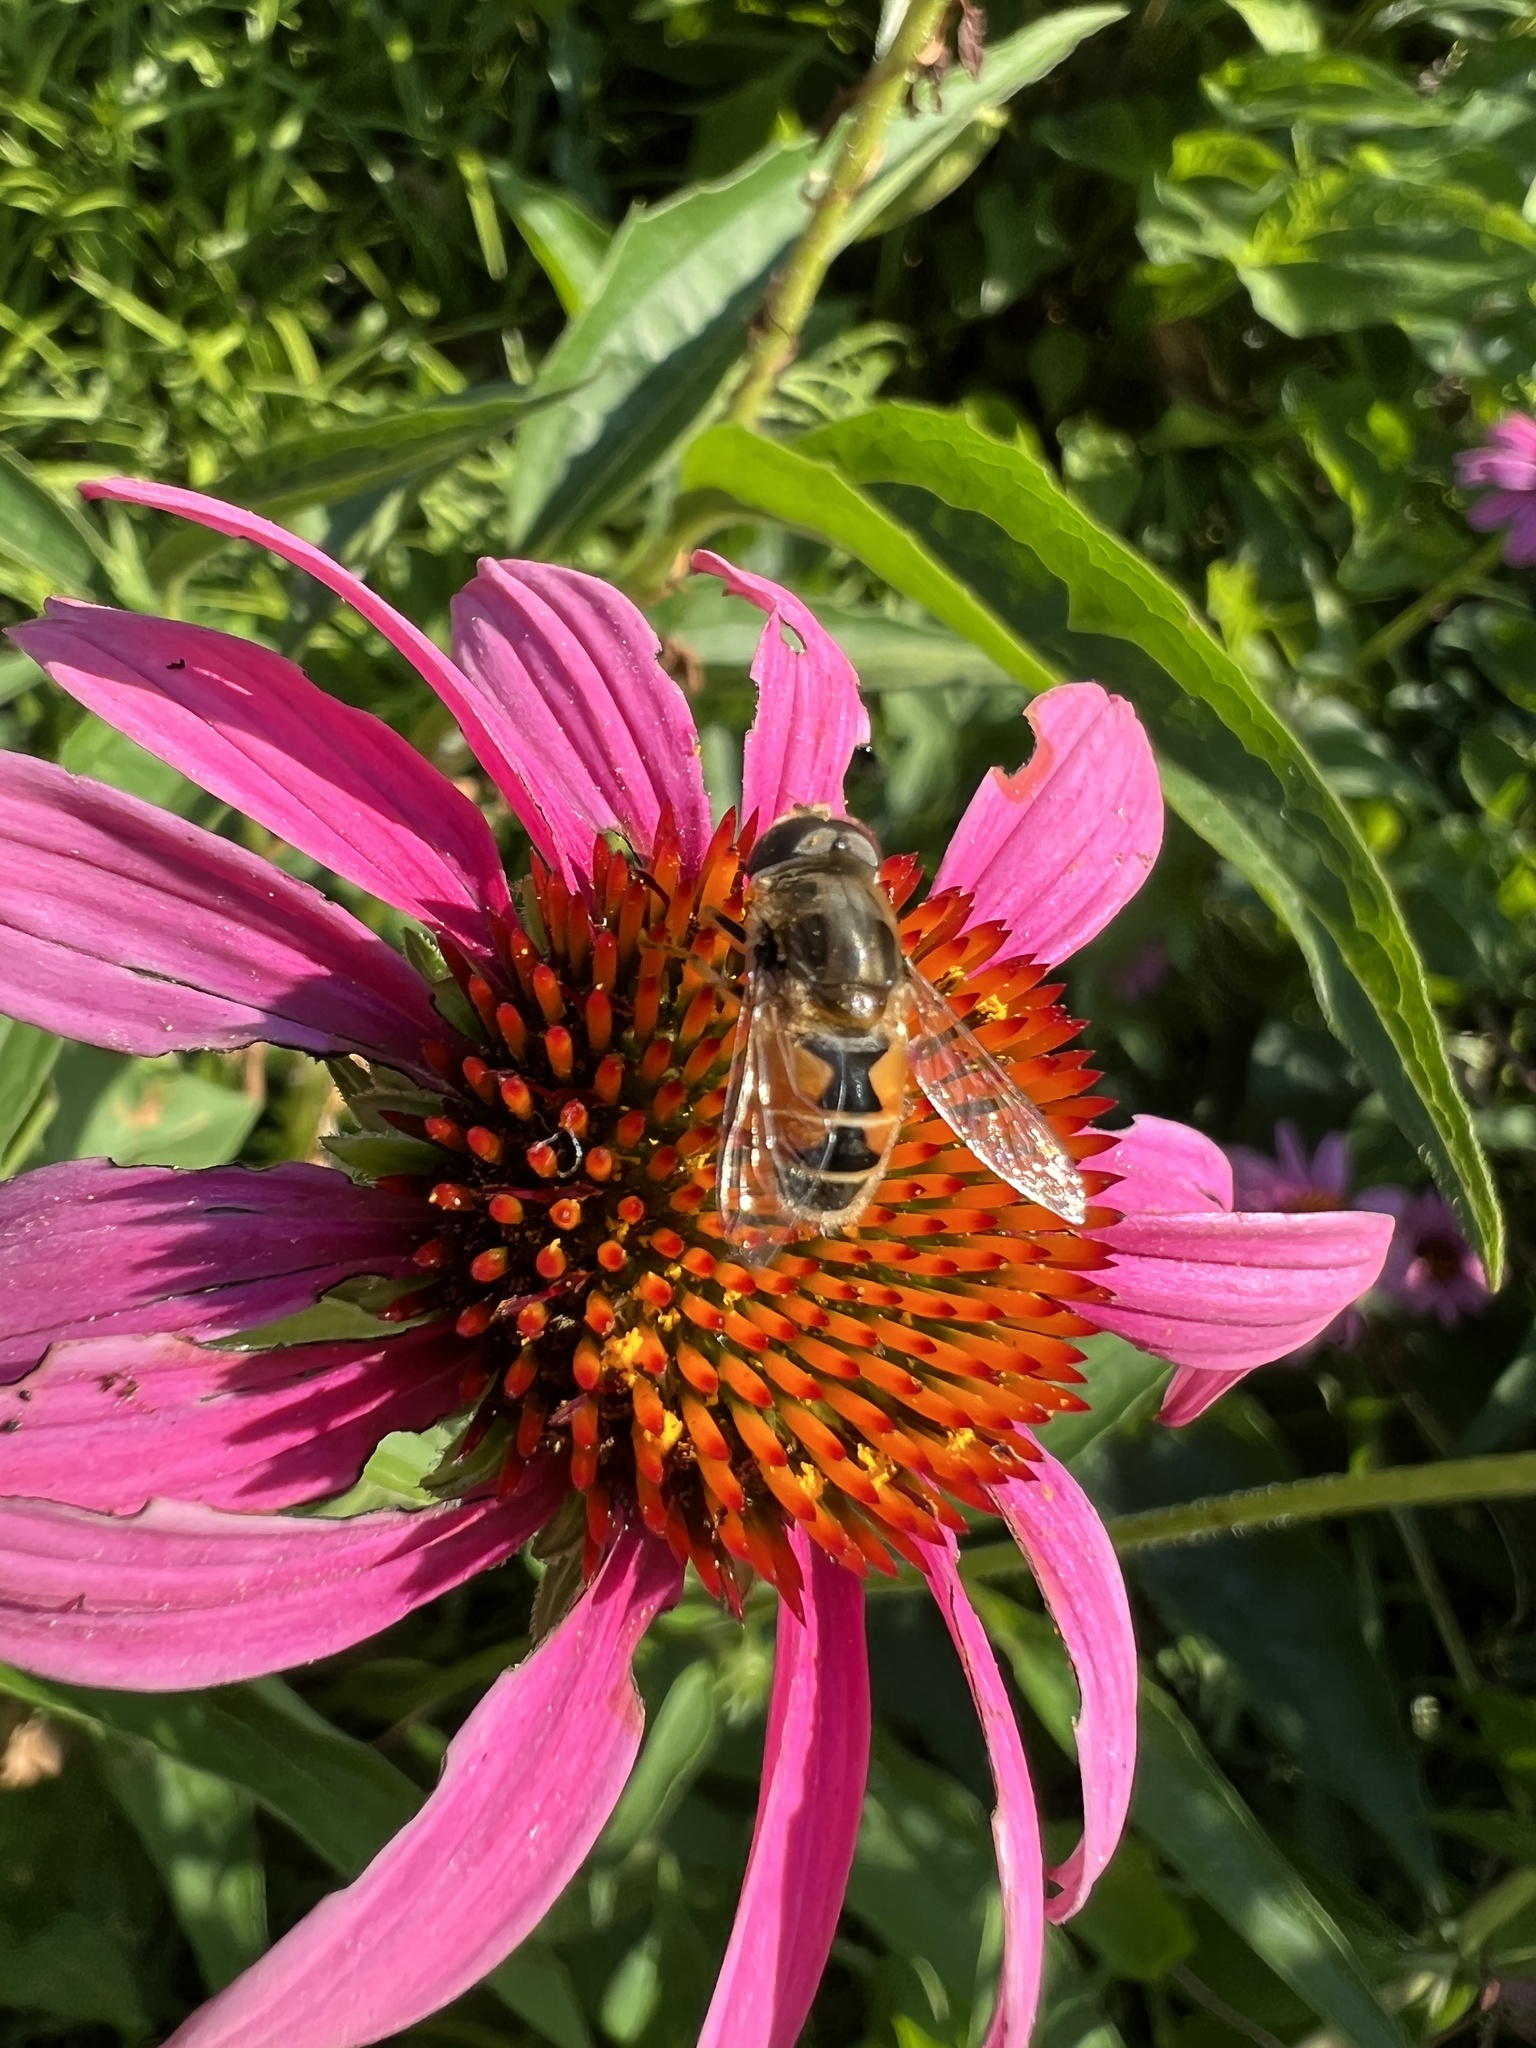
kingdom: Animalia
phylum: Arthropoda
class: Insecta
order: Diptera
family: Syrphidae
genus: Eristalis
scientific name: Eristalis arbustorum
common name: Hover fly
